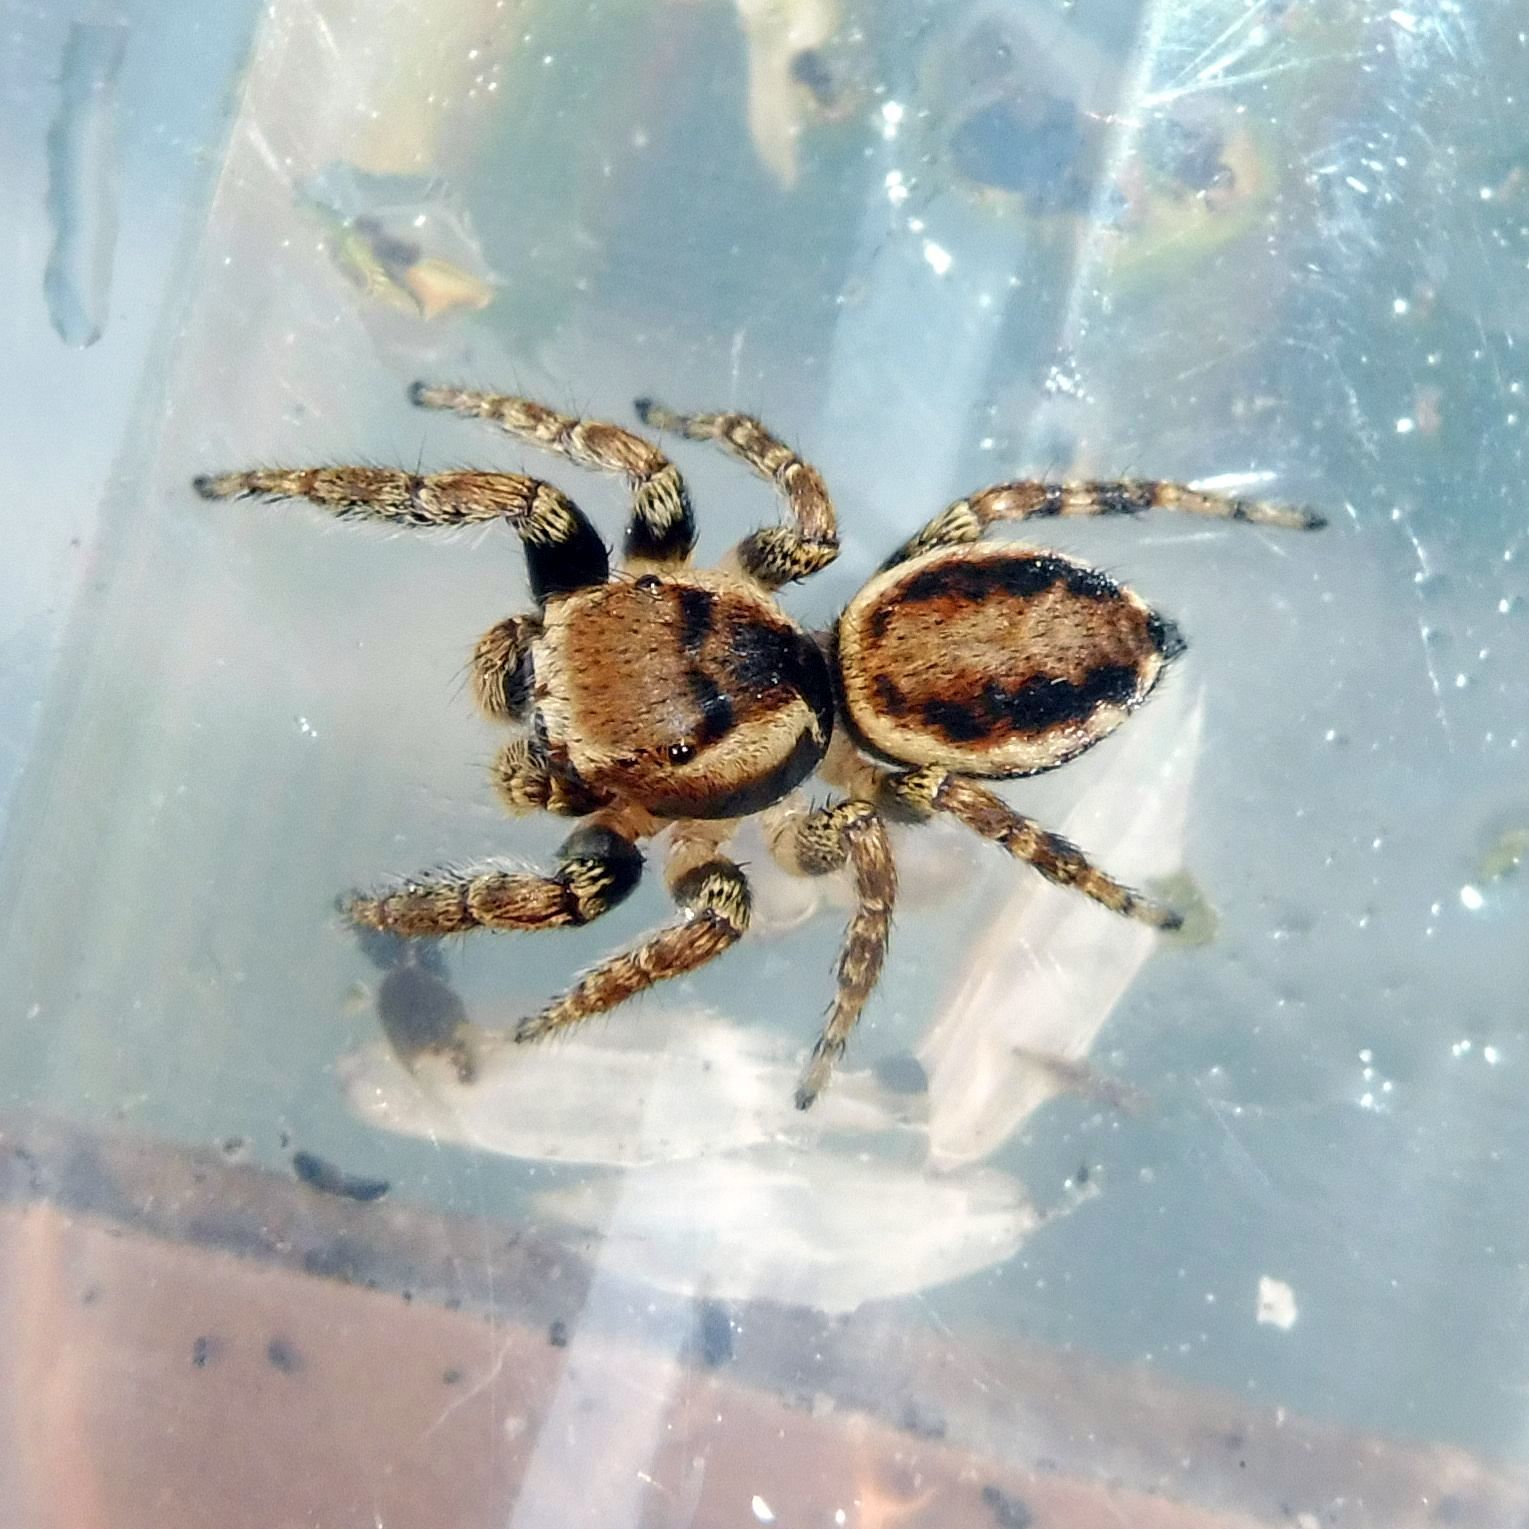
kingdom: Animalia
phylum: Arthropoda
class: Arachnida
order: Araneae
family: Salticidae
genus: Evarcha
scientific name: Evarcha falcata
